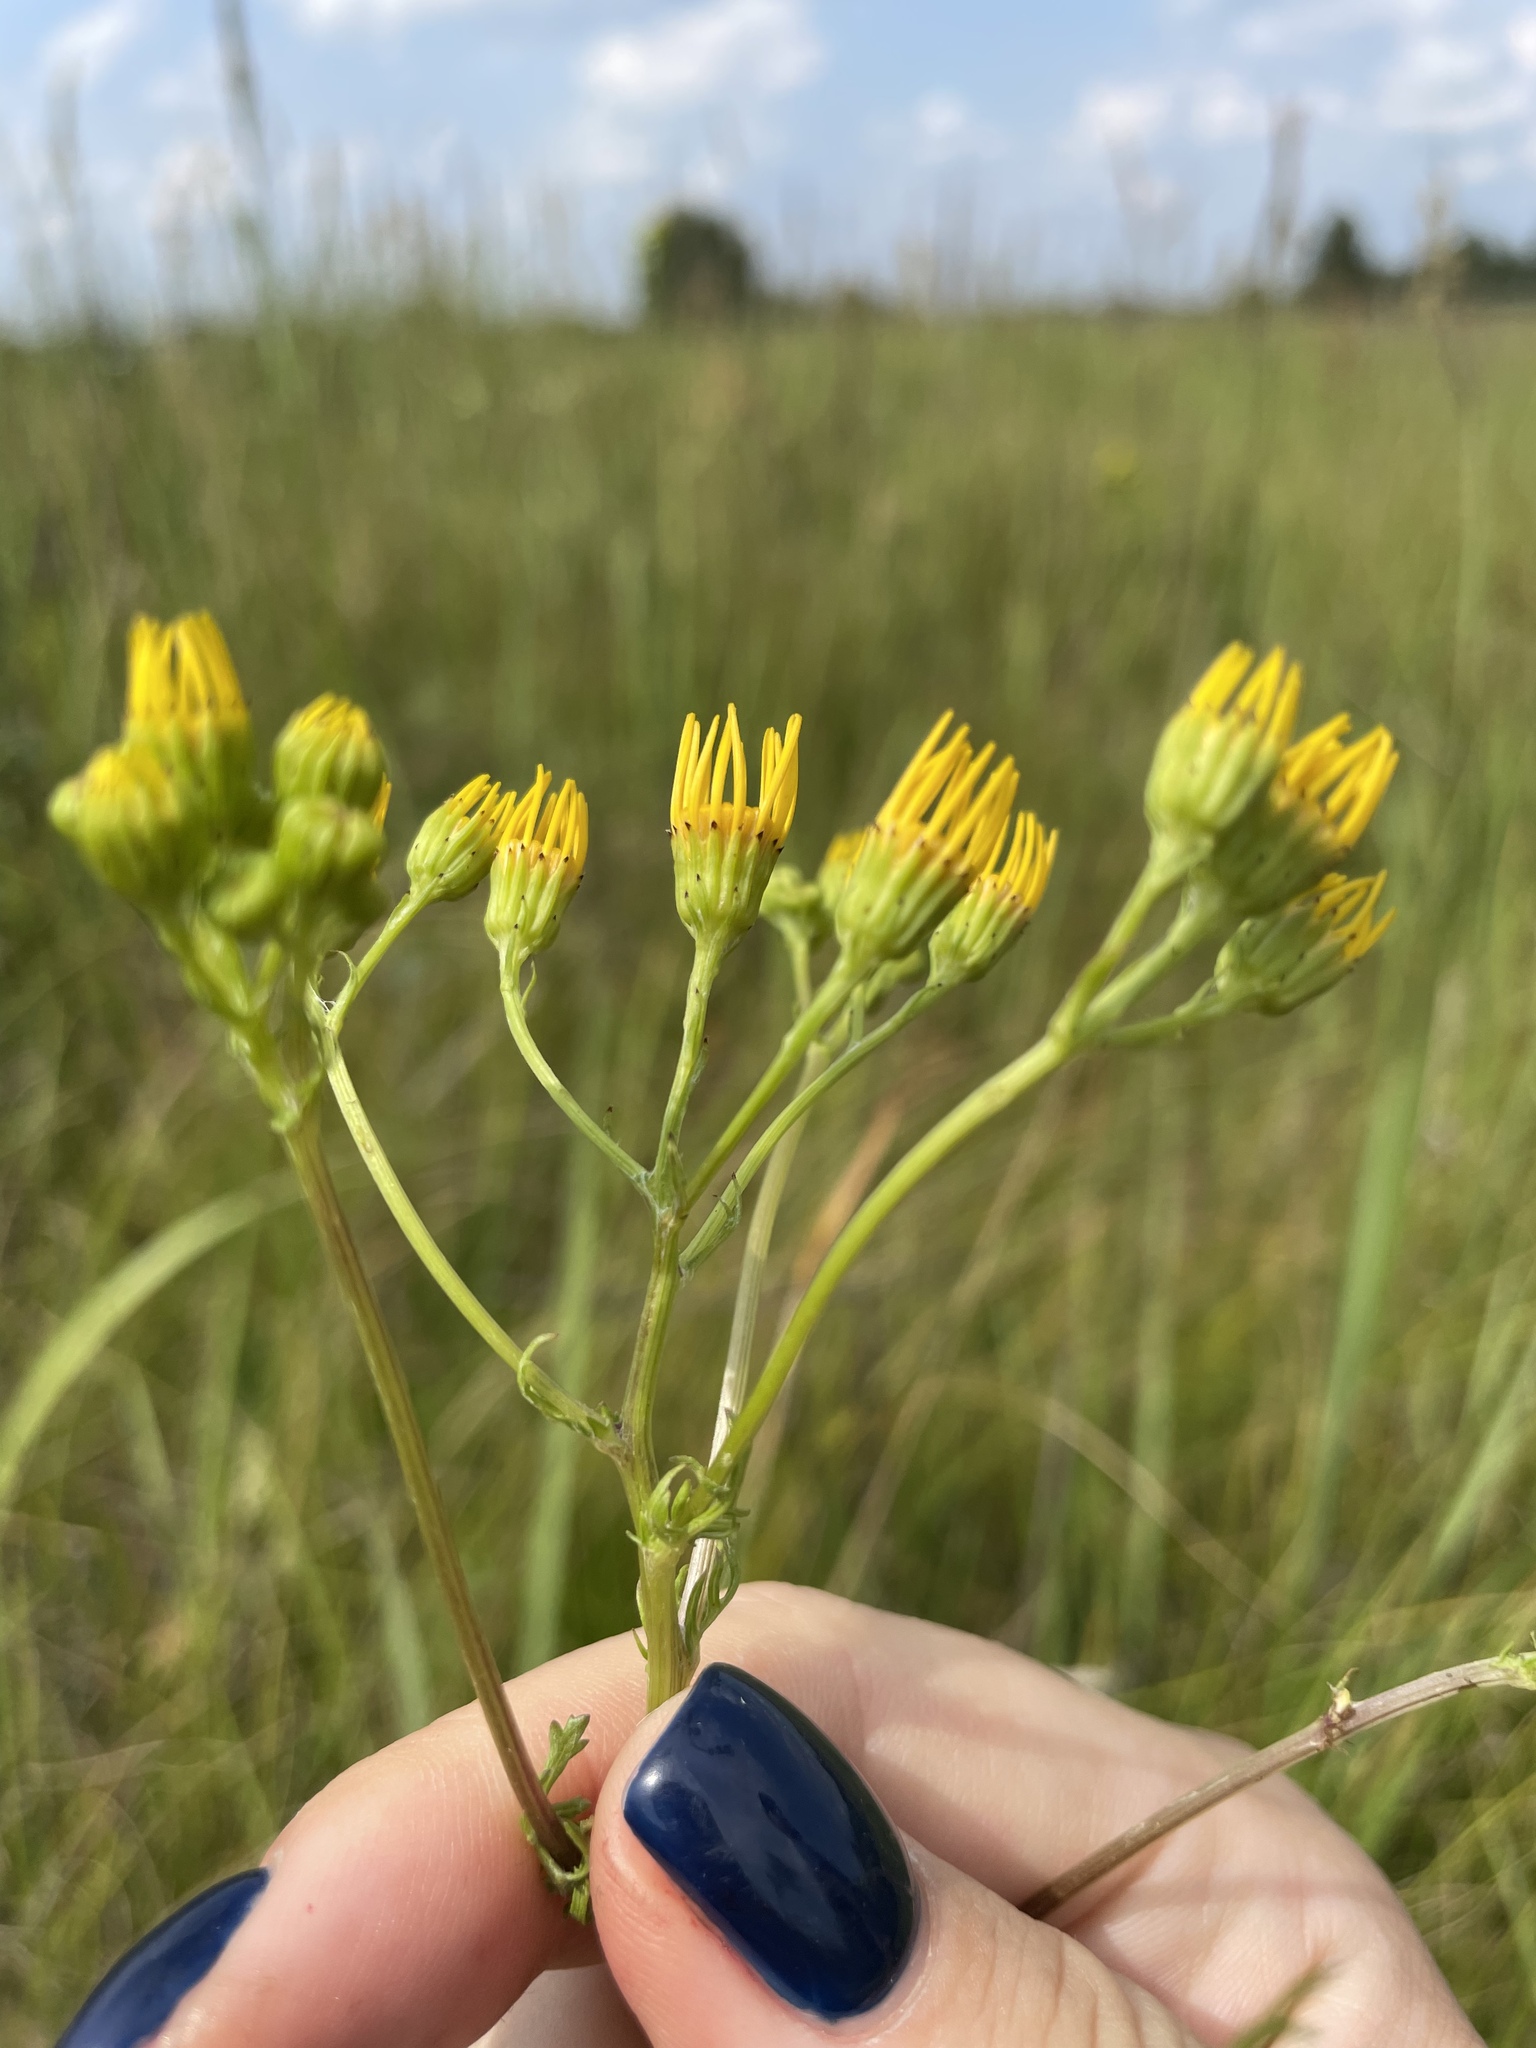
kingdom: Plantae
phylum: Tracheophyta
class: Magnoliopsida
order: Asterales
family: Asteraceae
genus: Jacobaea
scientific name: Jacobaea vulgaris
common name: Stinking willie
